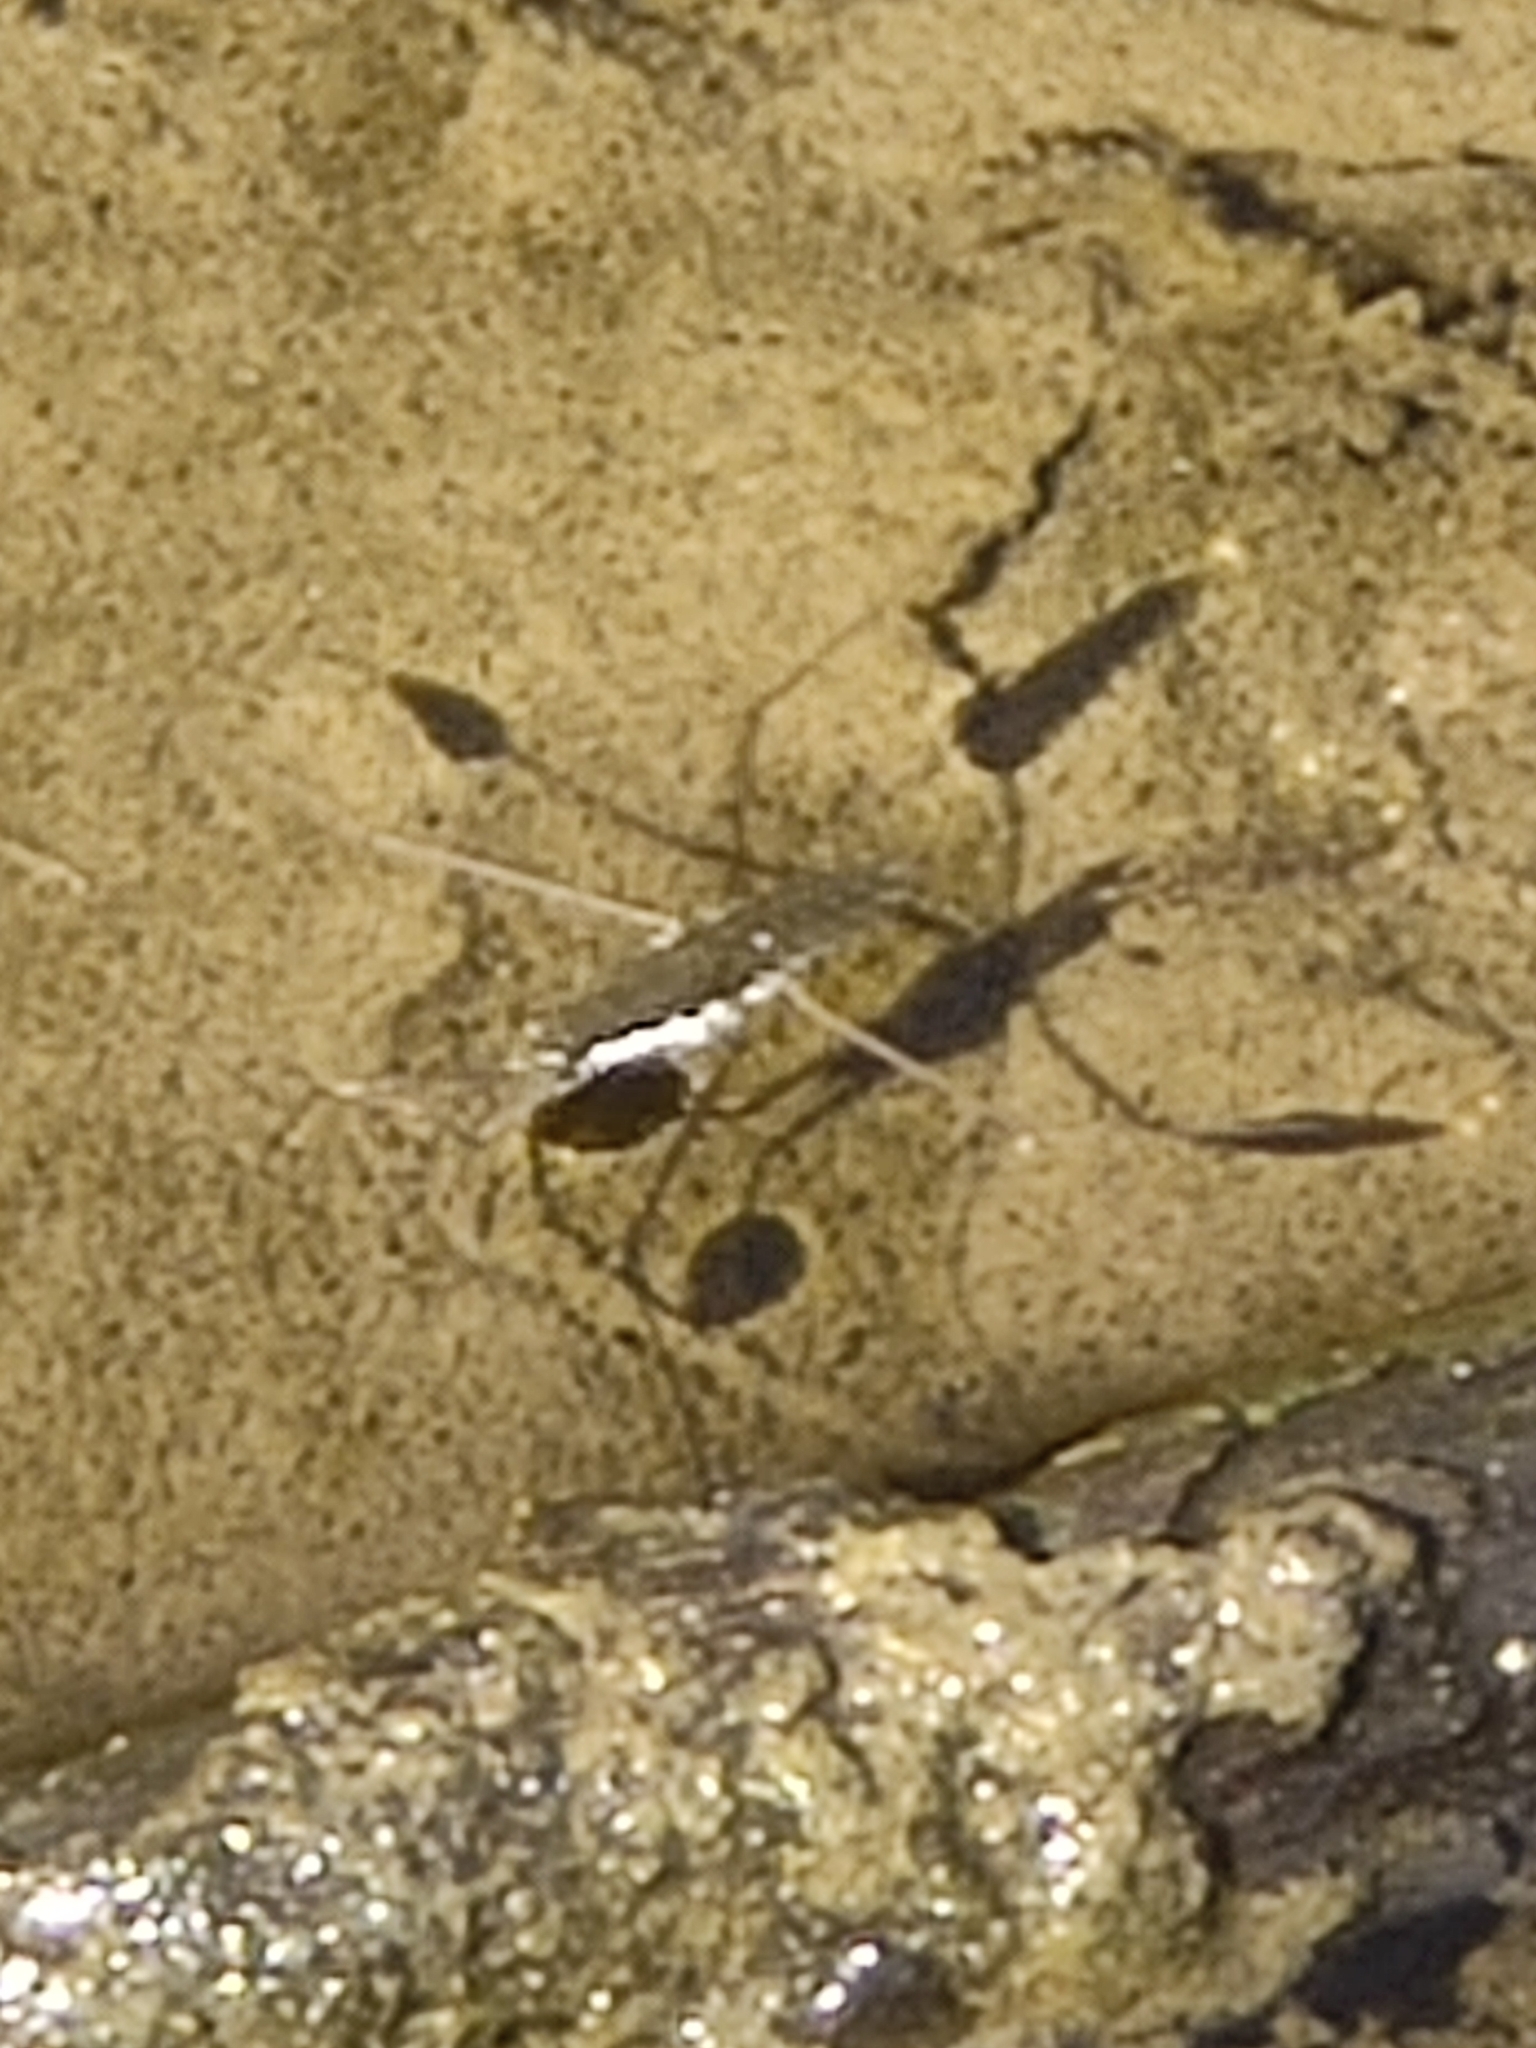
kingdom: Animalia
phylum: Arthropoda
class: Insecta
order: Hemiptera
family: Gerridae
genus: Aquarius
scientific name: Aquarius remigis
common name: Common water strider
